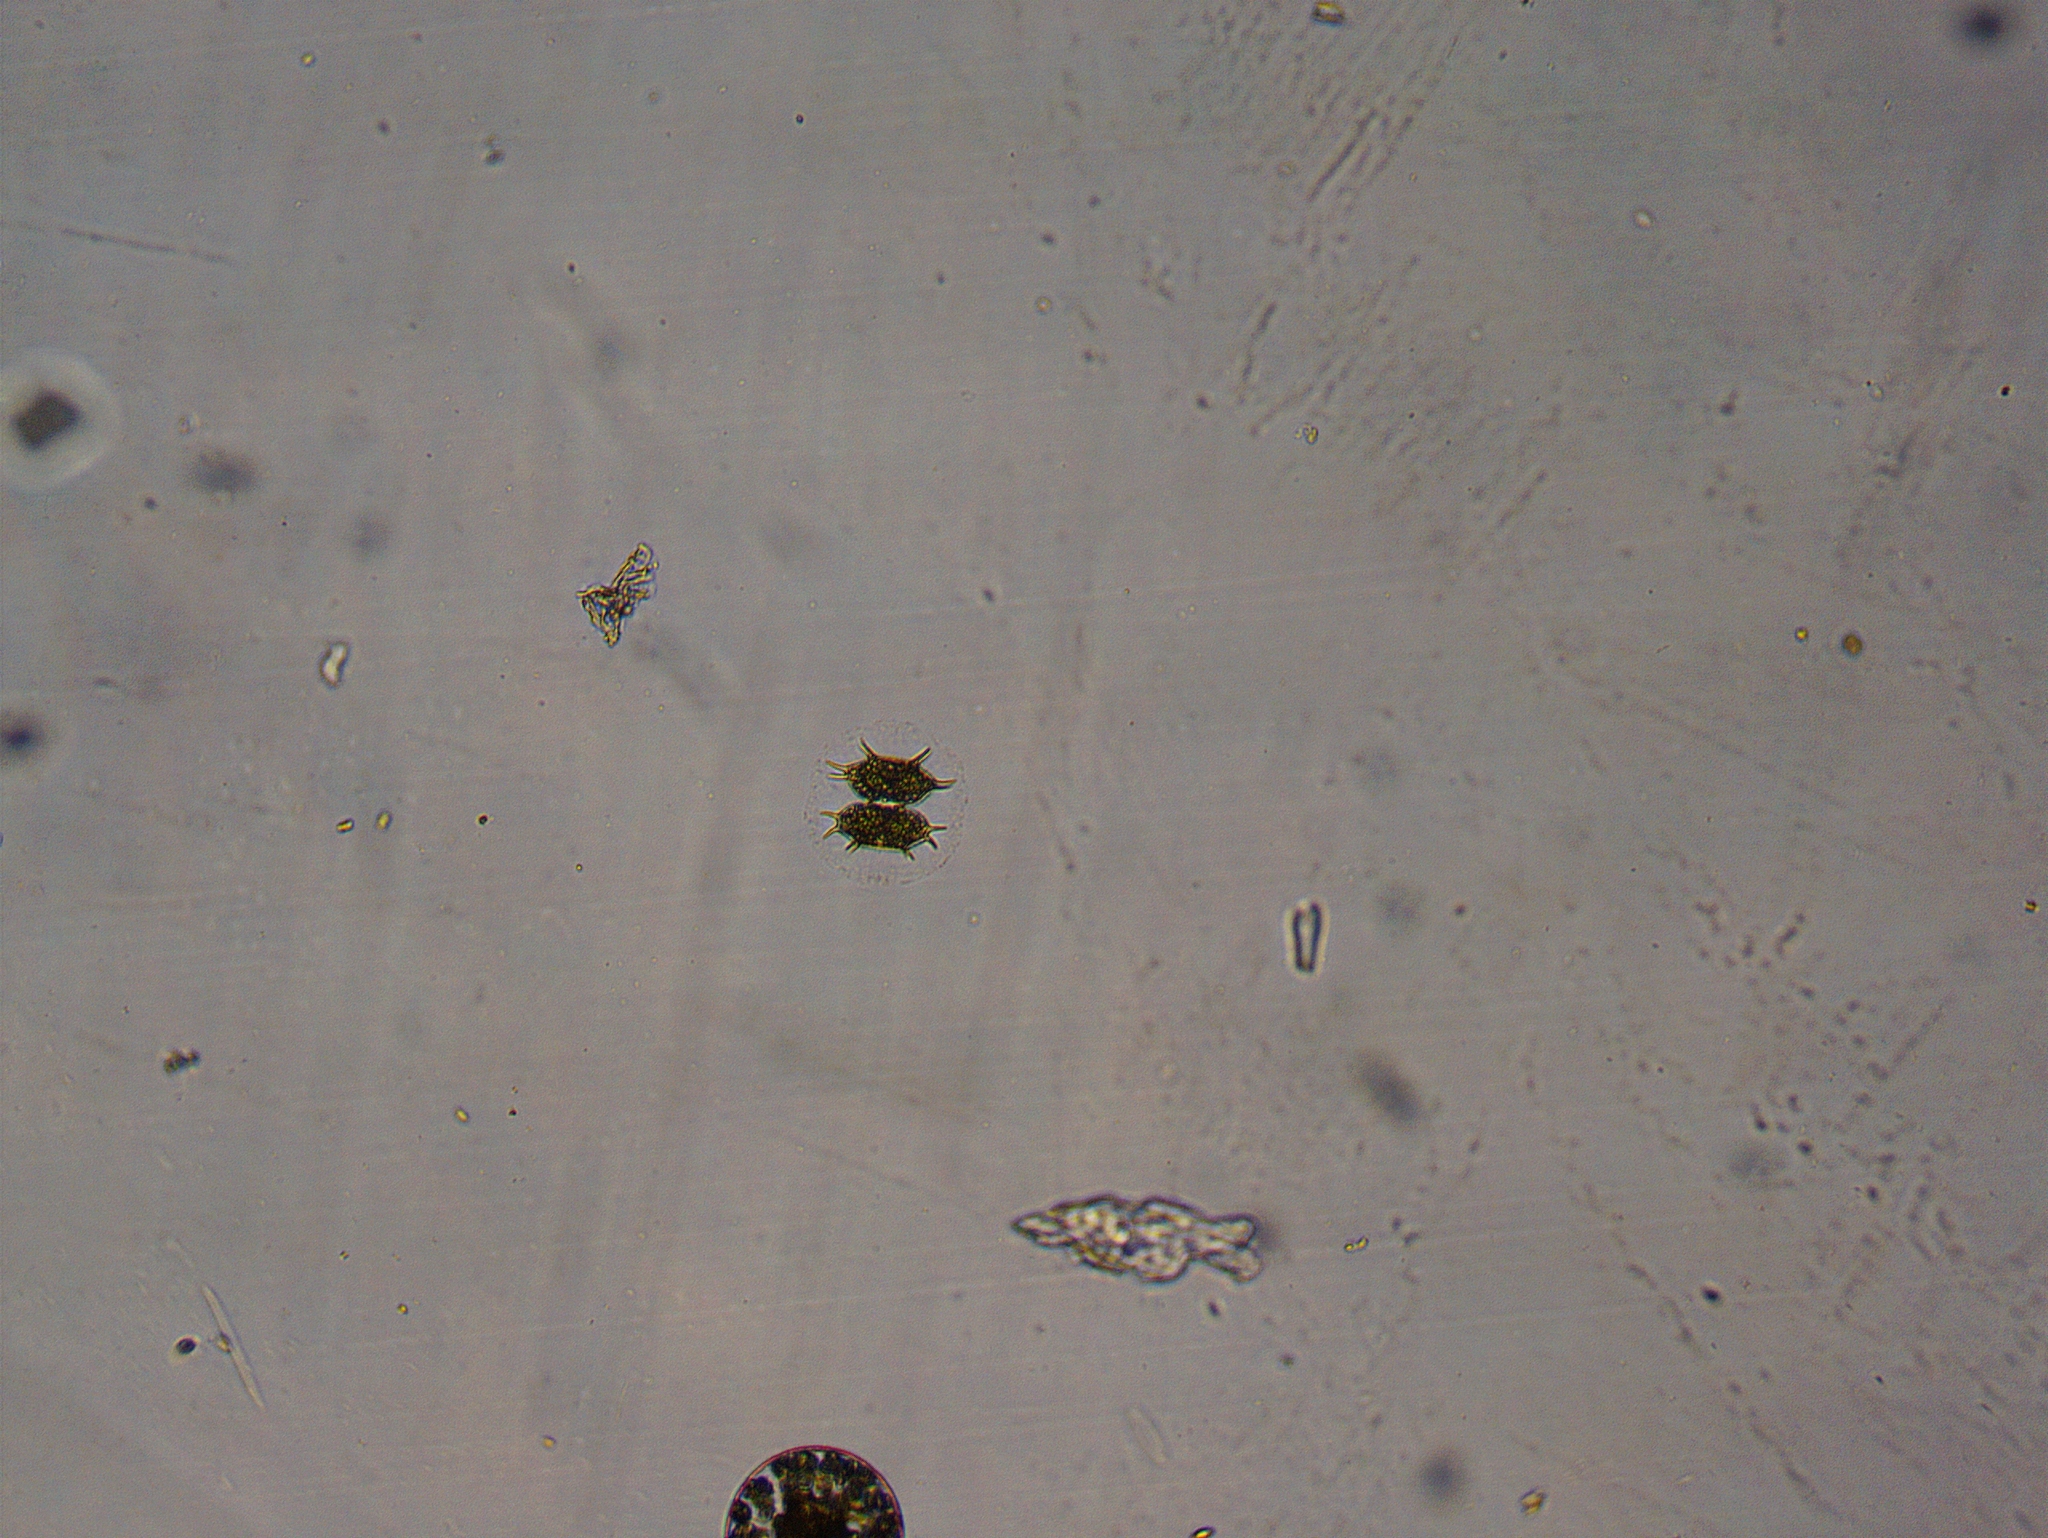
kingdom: Plantae
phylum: Charophyta
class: Conjugatophyceae
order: Desmidiales
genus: Xanthidium
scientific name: Xanthidium antilopaeum
